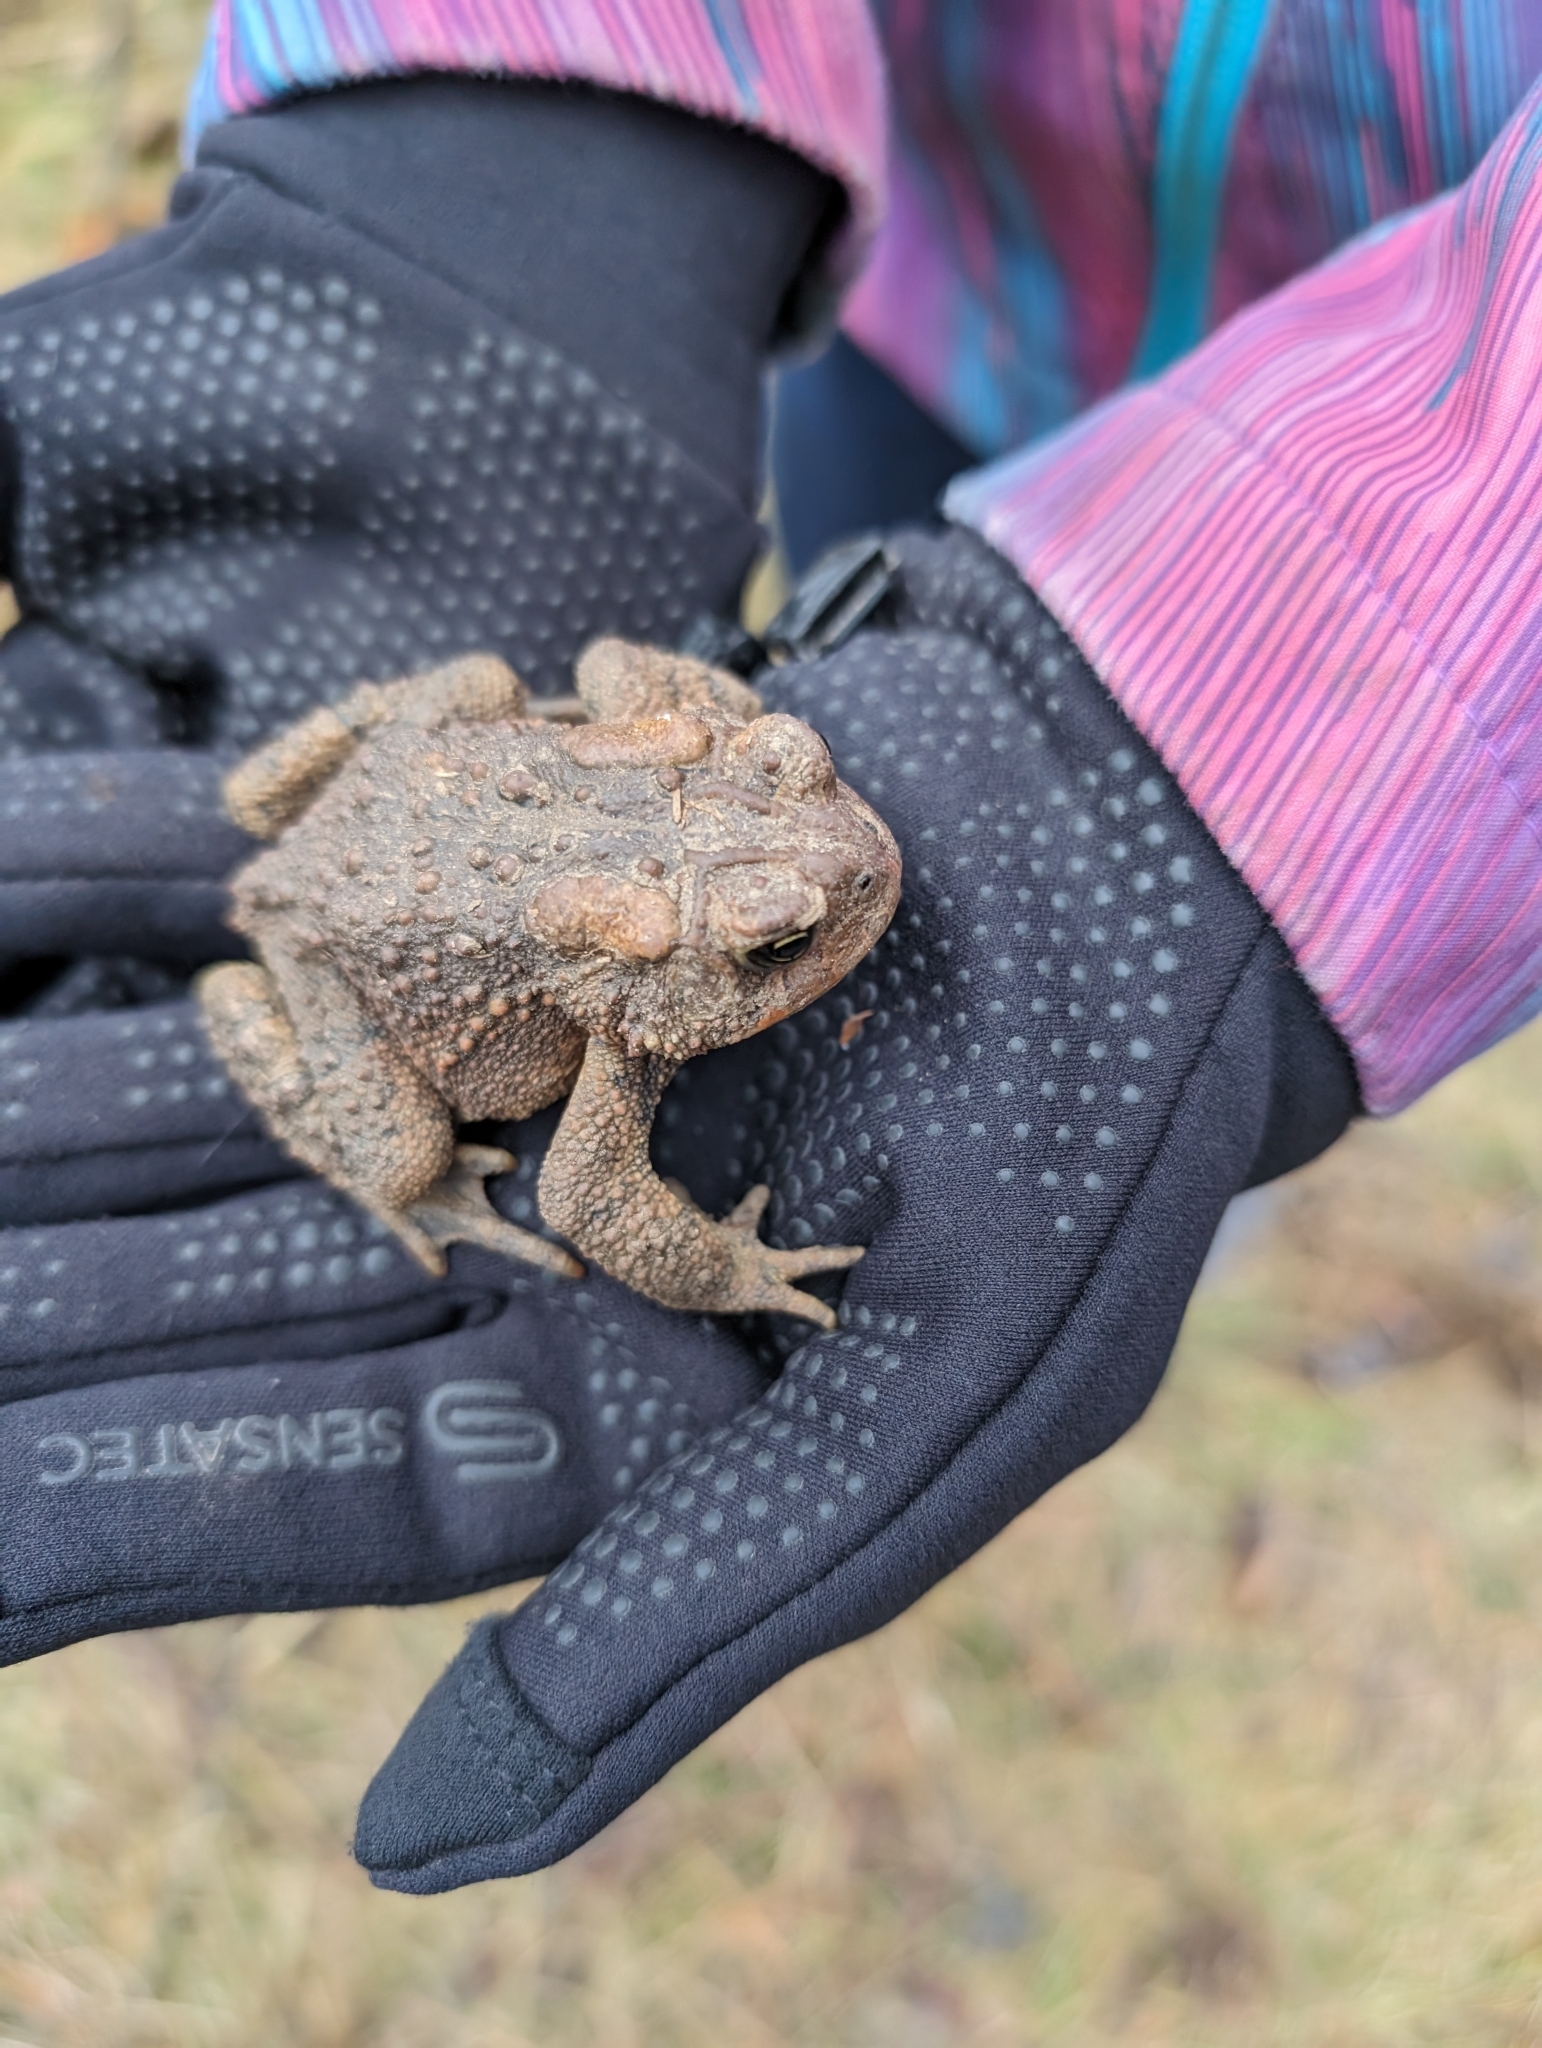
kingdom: Animalia
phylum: Chordata
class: Amphibia
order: Anura
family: Bufonidae
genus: Anaxyrus
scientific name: Anaxyrus americanus
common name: American toad
